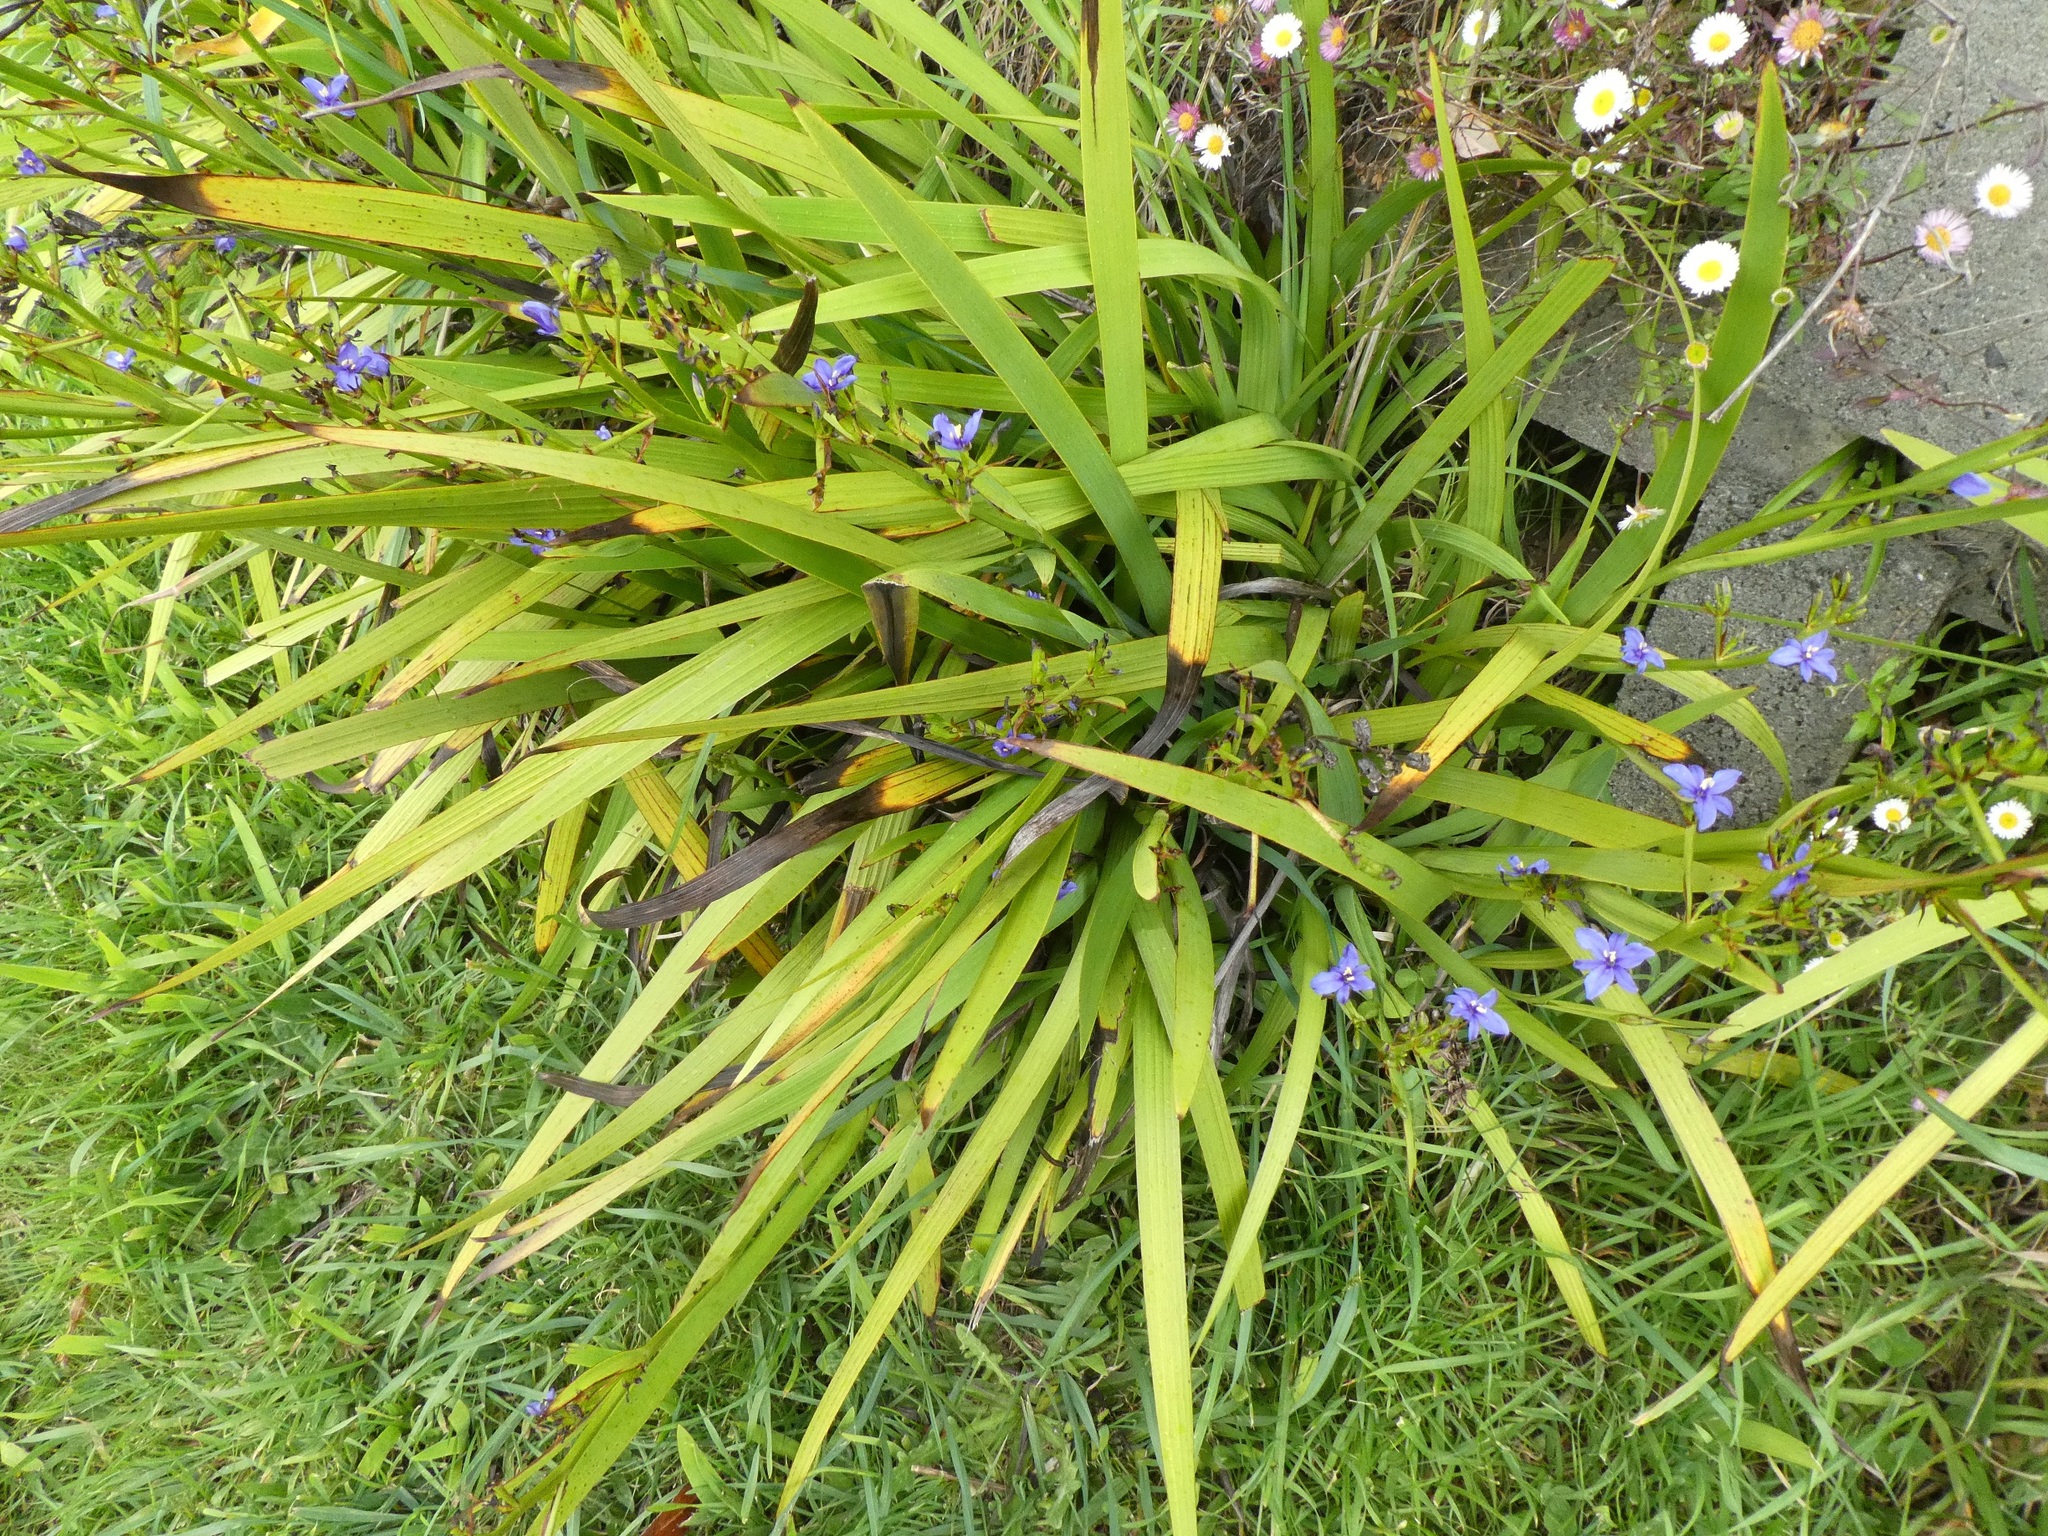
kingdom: Plantae
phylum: Tracheophyta
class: Liliopsida
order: Asparagales
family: Iridaceae
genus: Aristea
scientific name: Aristea ecklonii
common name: Blue corn-lily
